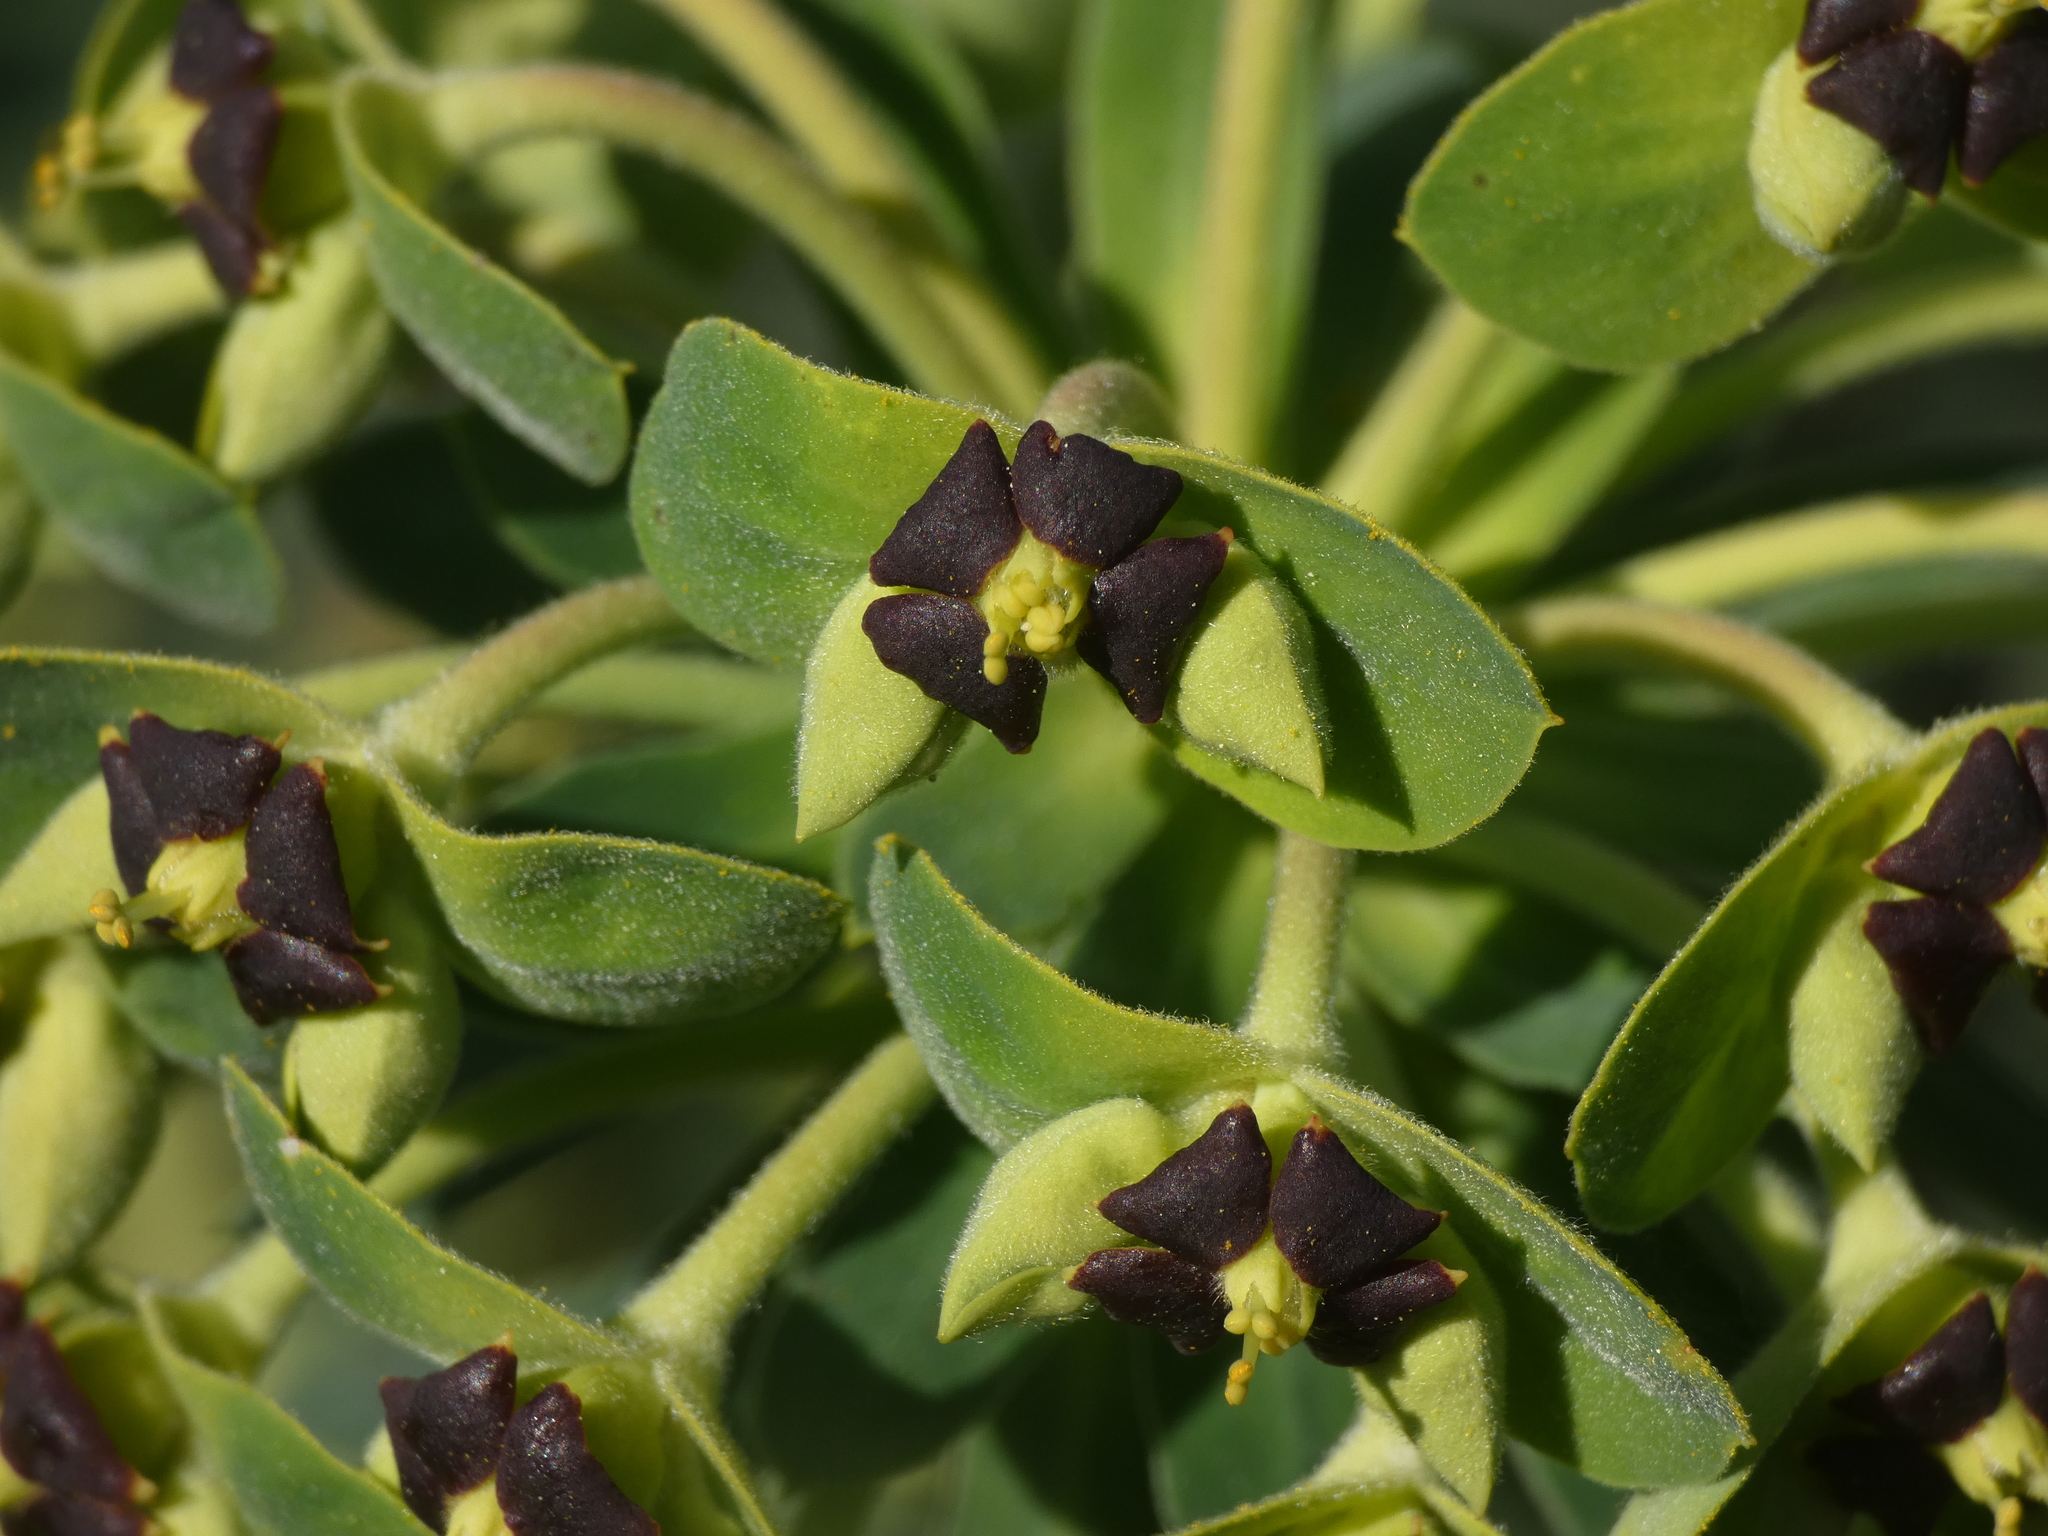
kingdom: Plantae
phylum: Tracheophyta
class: Magnoliopsida
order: Malpighiales
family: Euphorbiaceae
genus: Euphorbia
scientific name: Euphorbia characias
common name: Mediterranean spurge
